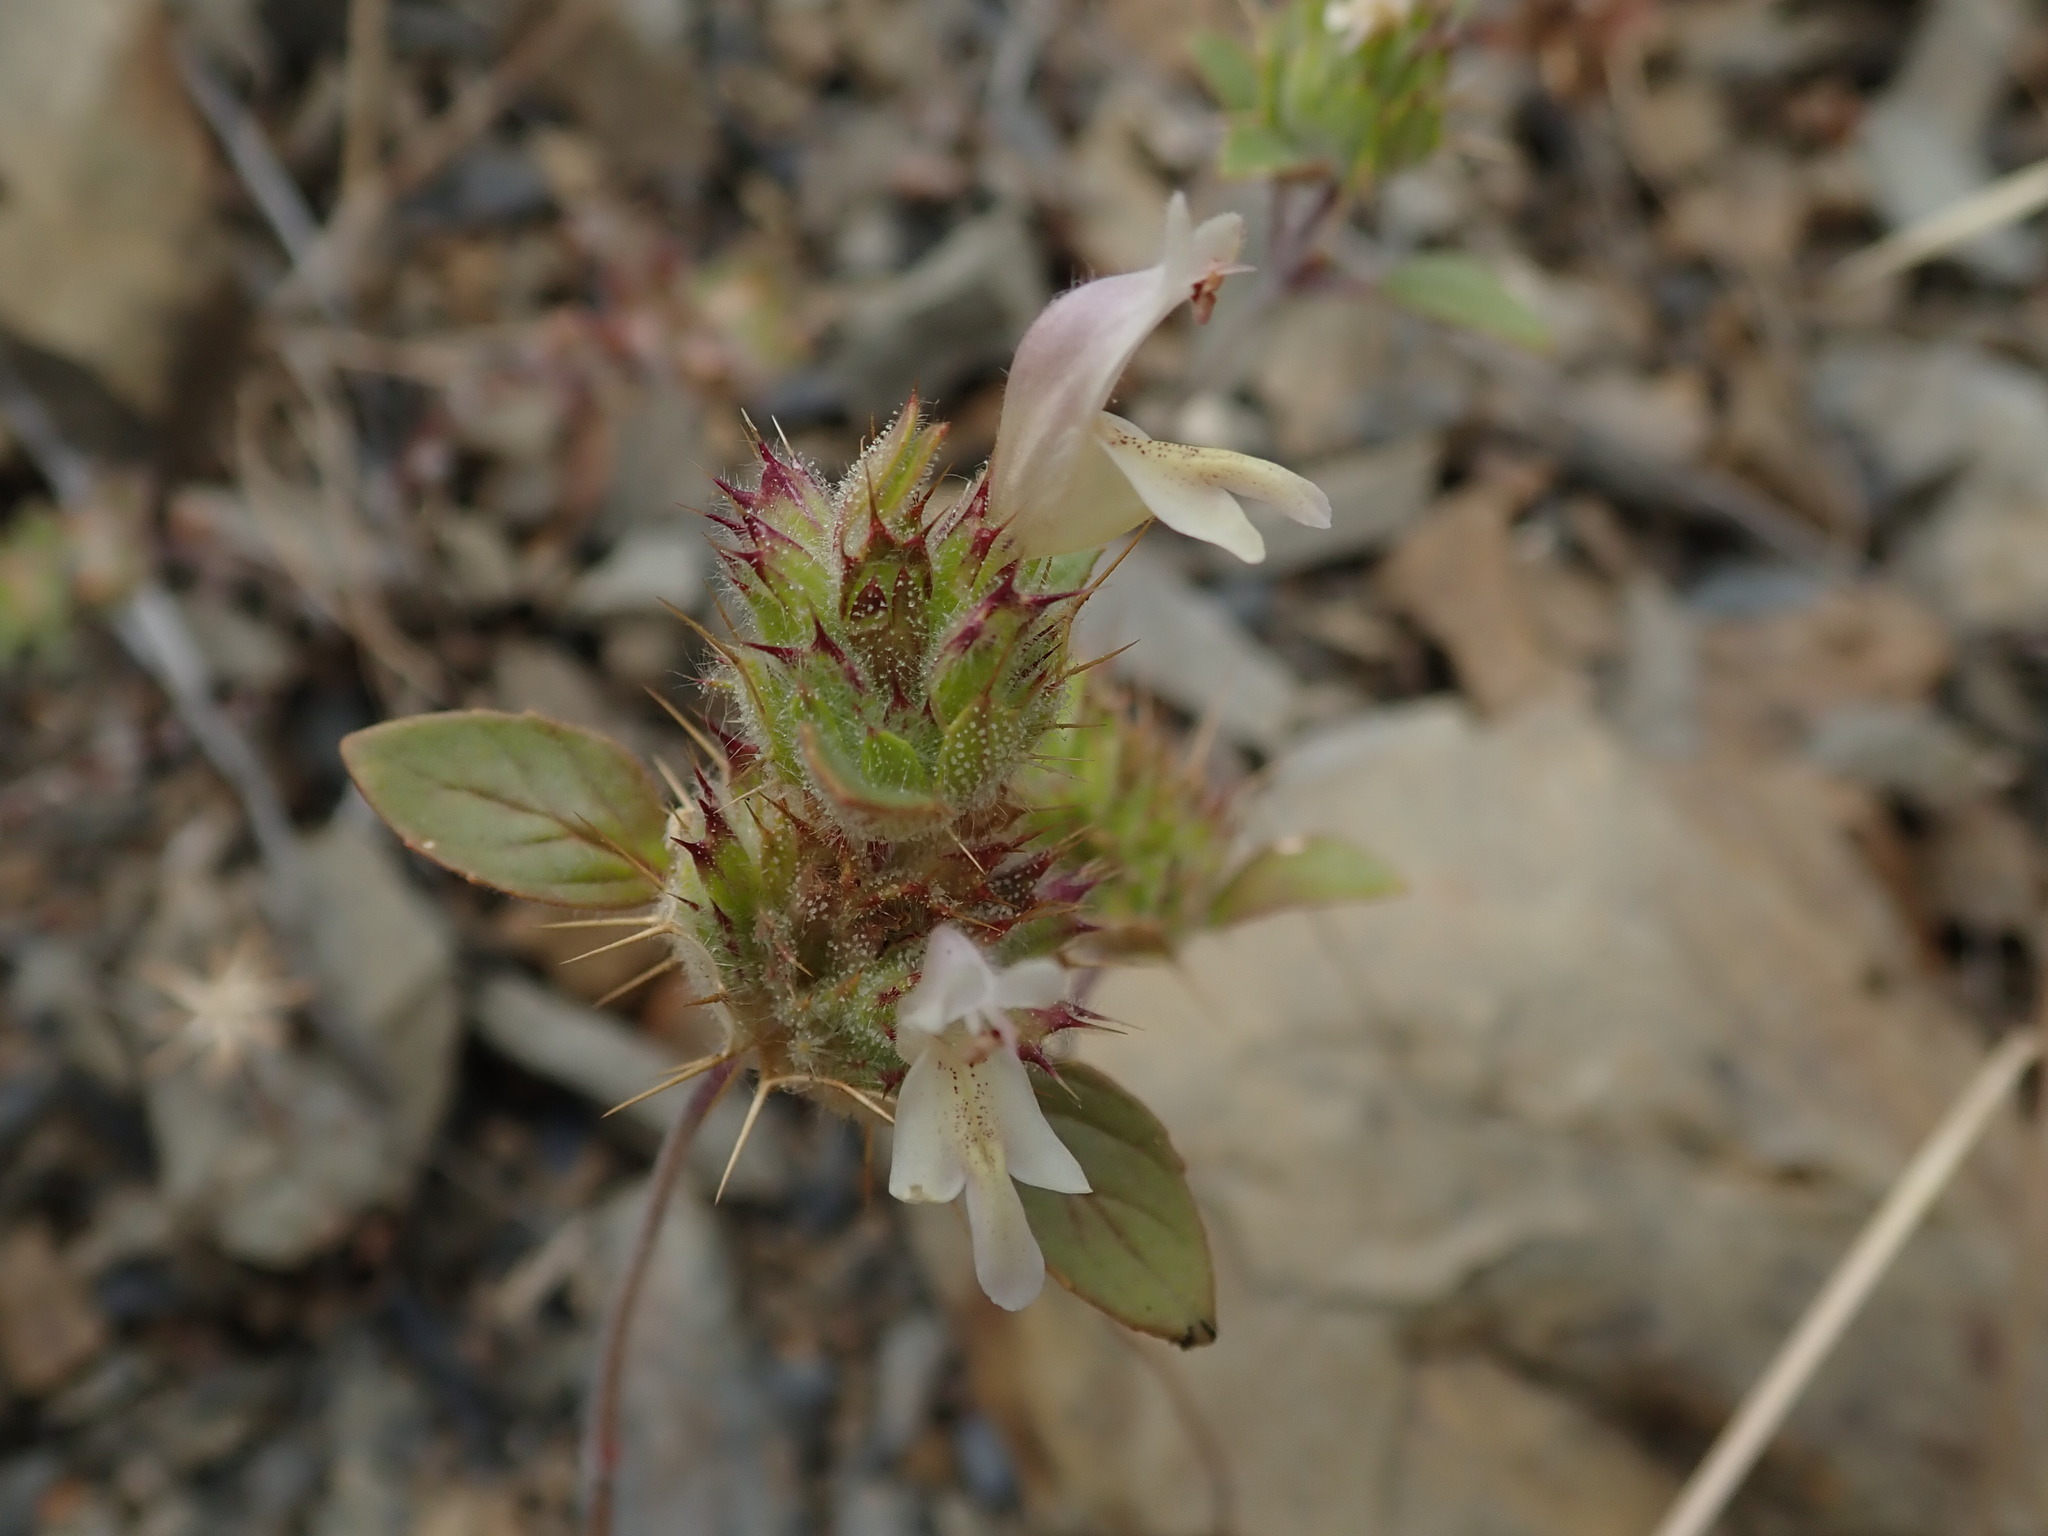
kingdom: Plantae
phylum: Tracheophyta
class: Magnoliopsida
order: Lamiales
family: Lamiaceae
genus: Acanthomintha
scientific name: Acanthomintha lanceolata
